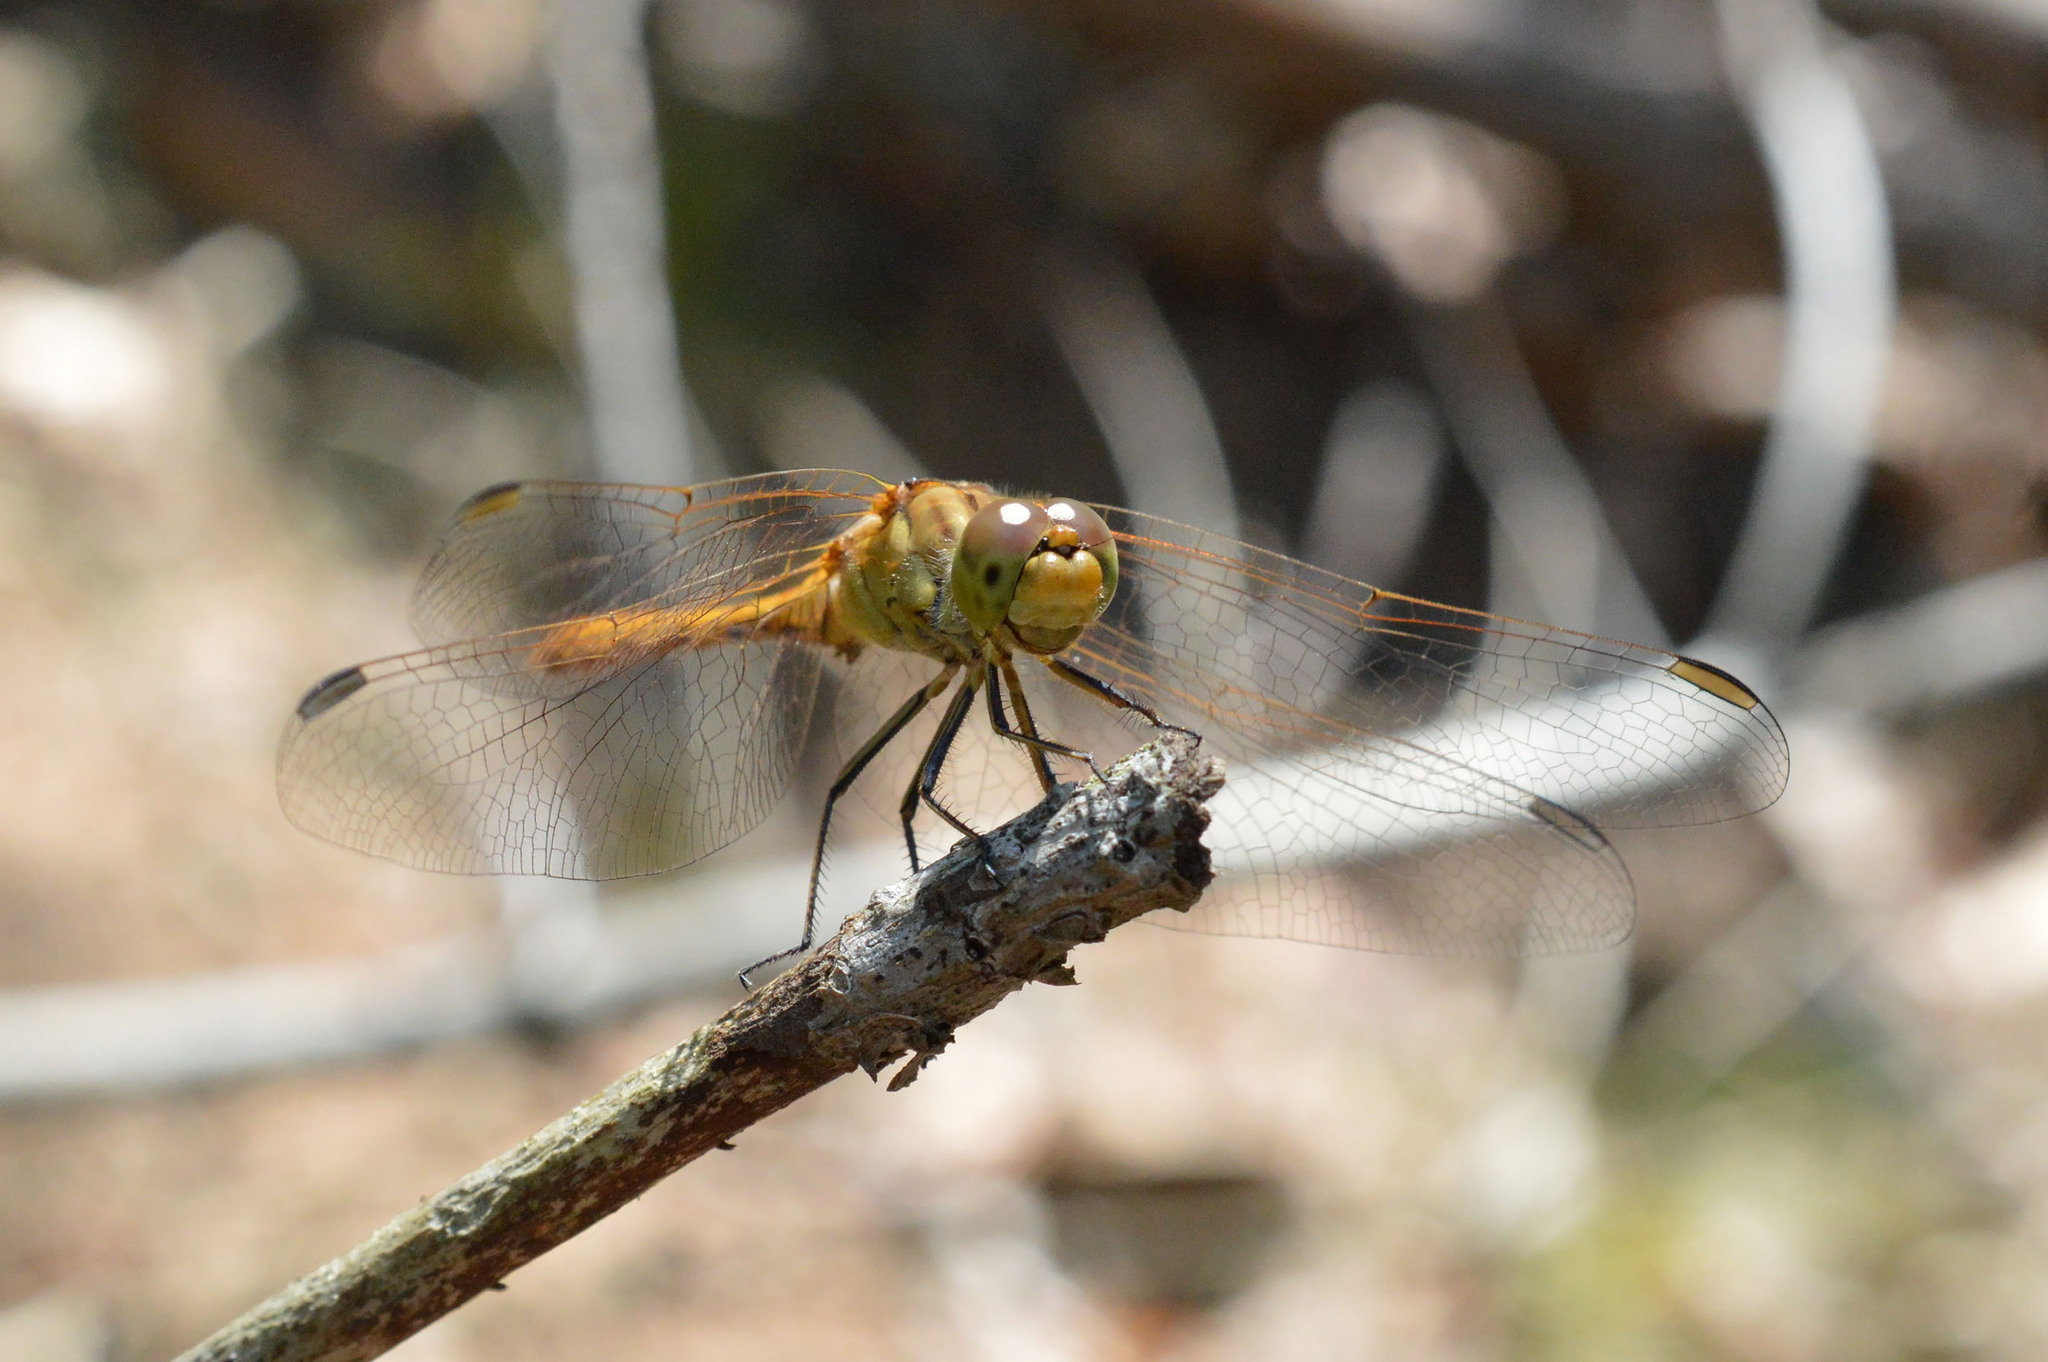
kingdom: Animalia
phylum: Arthropoda
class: Insecta
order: Odonata
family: Libellulidae
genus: Sympetrum
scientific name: Sympetrum meridionale
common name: Southern darter
